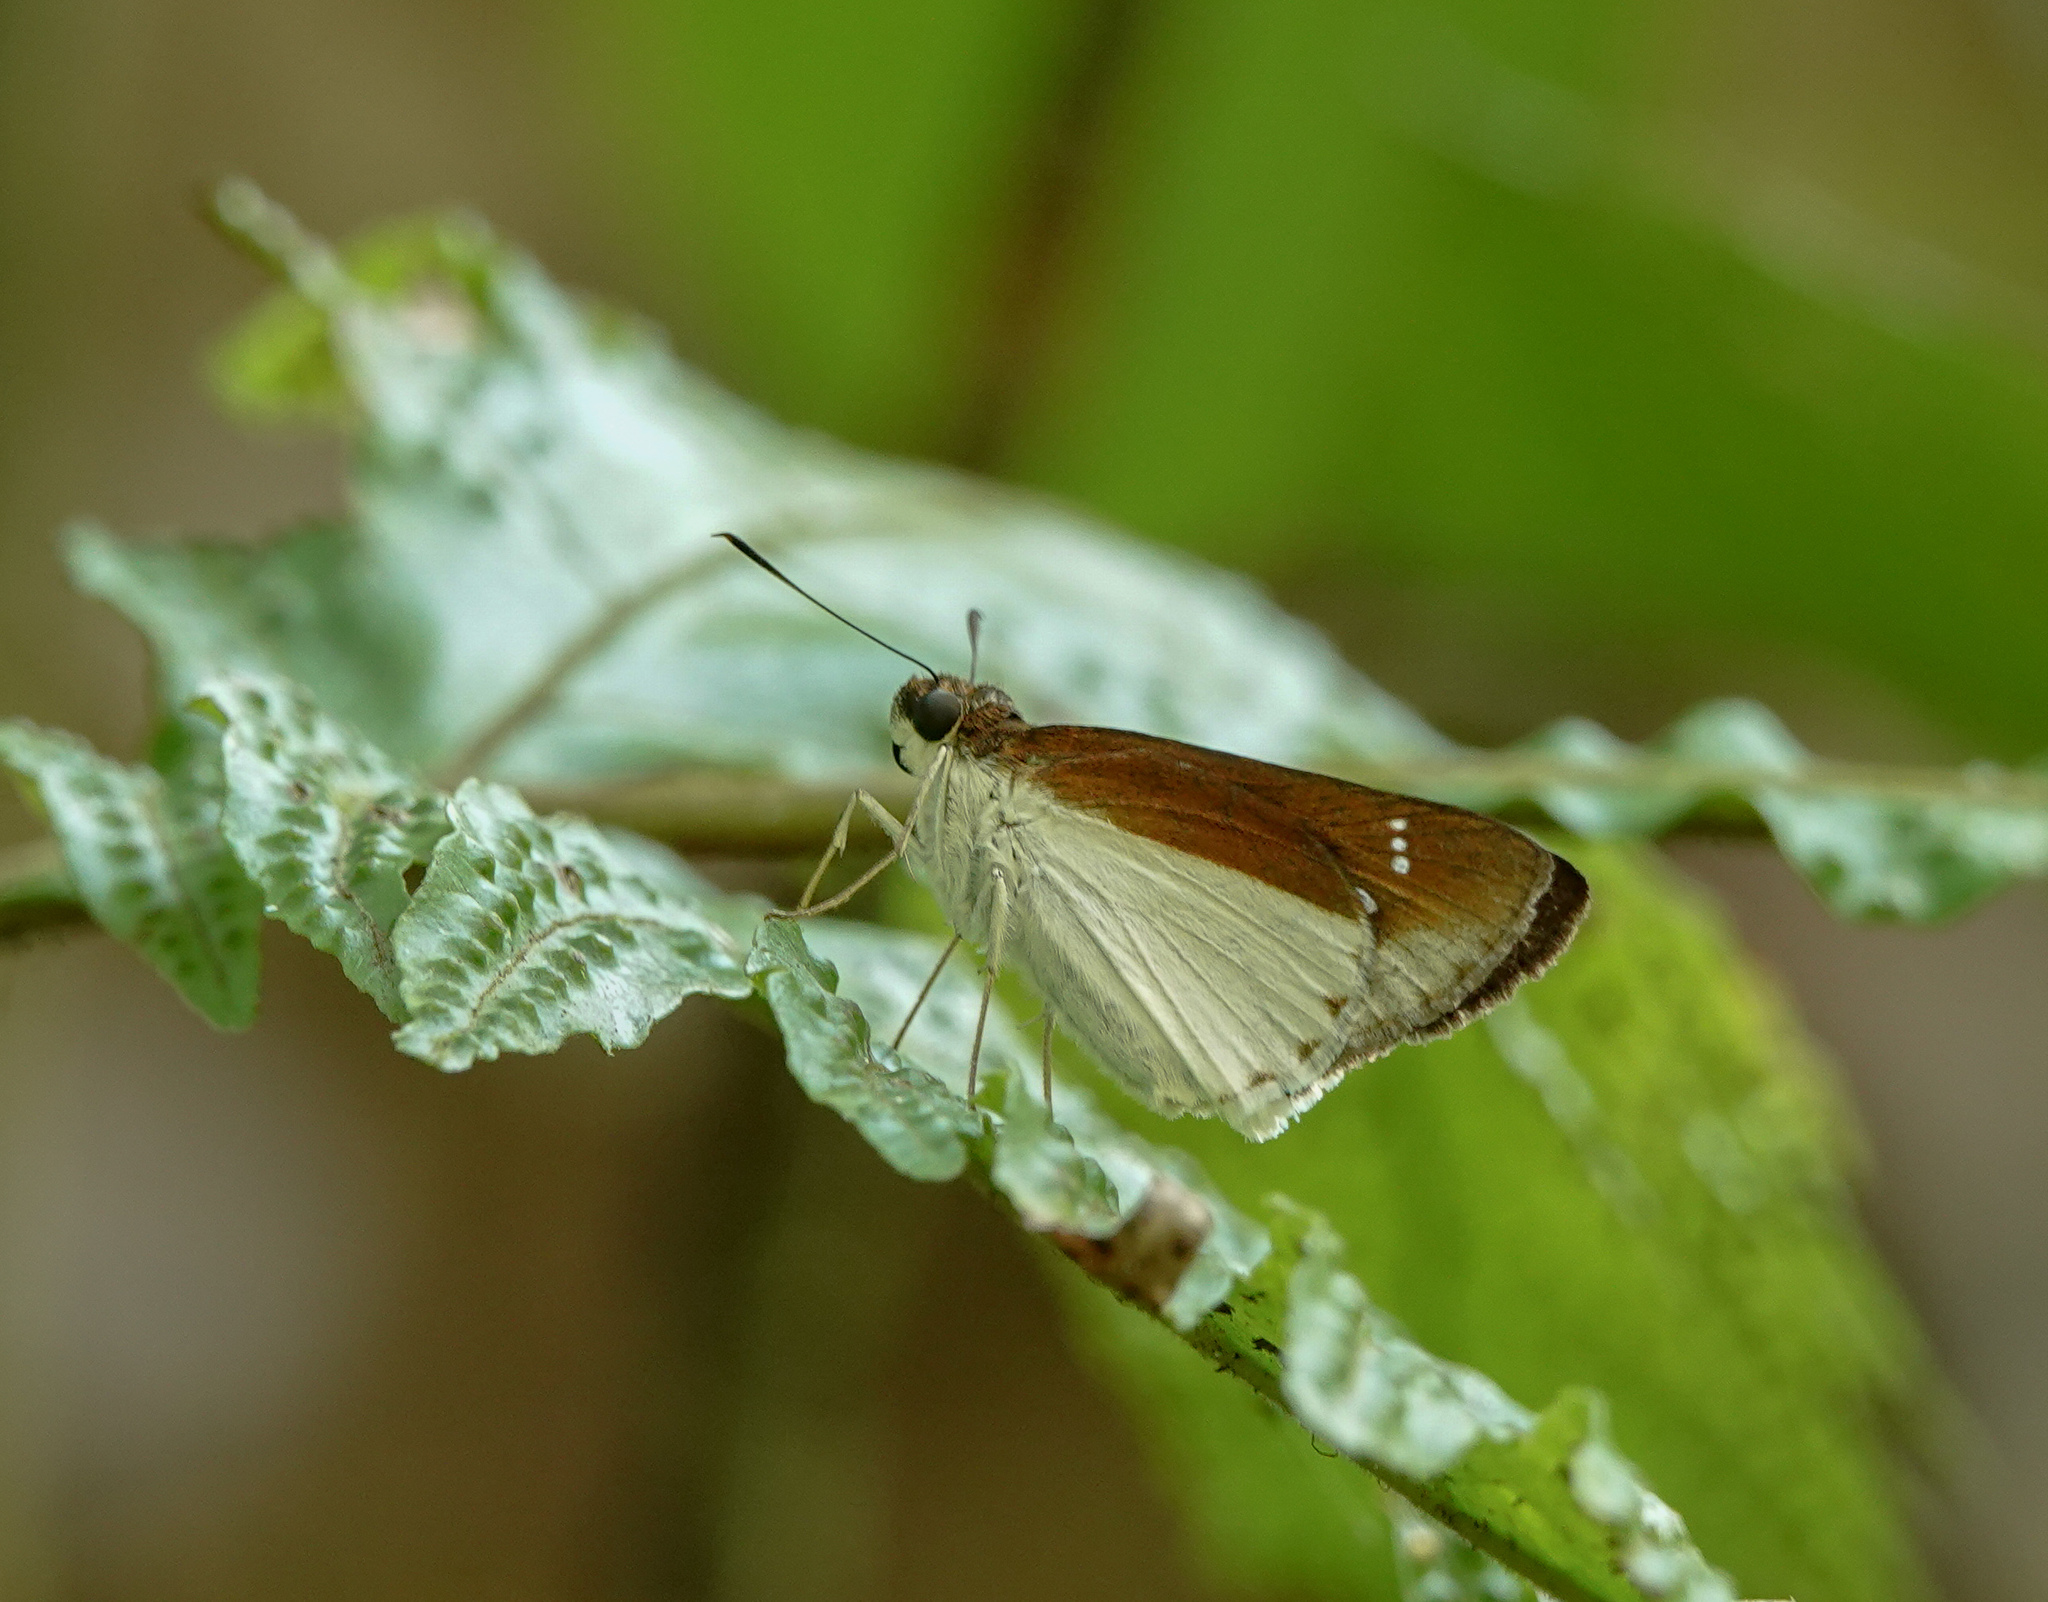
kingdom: Animalia
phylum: Arthropoda
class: Insecta
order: Lepidoptera
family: Hesperiidae
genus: Iton
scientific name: Iton semamora
